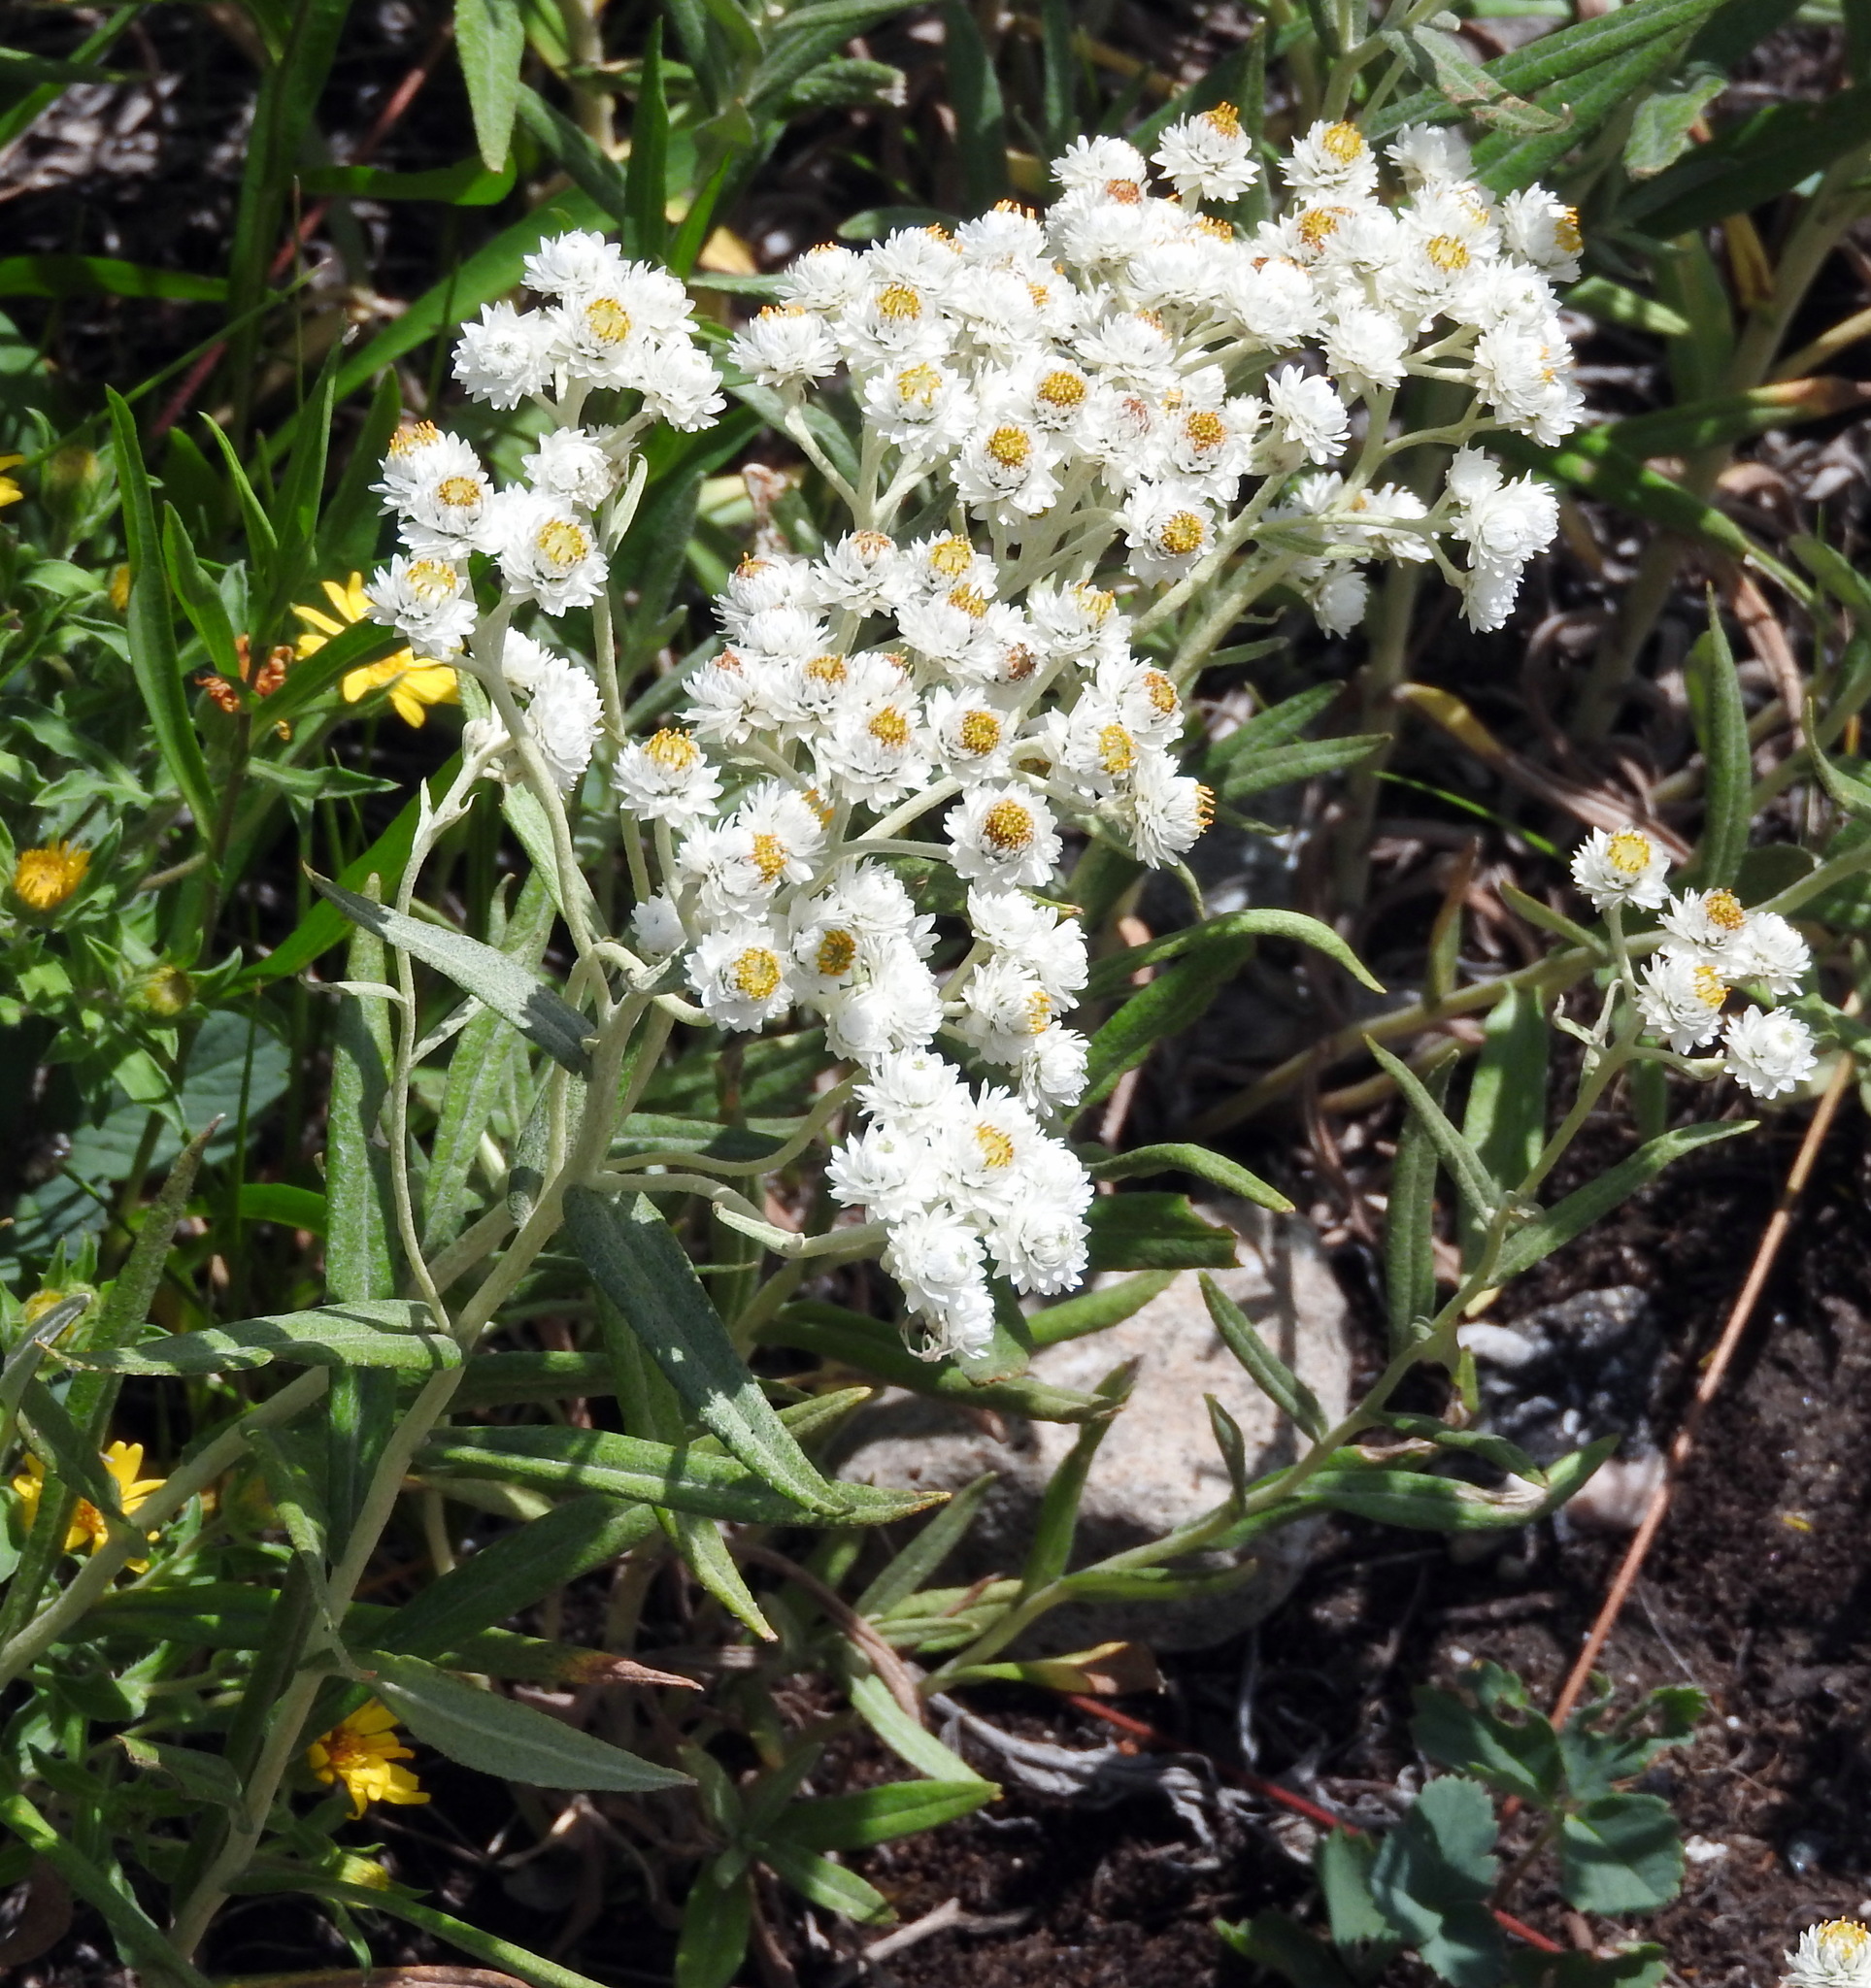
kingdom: Plantae
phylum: Tracheophyta
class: Magnoliopsida
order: Asterales
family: Asteraceae
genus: Anaphalis
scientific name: Anaphalis margaritacea
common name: Pearly everlasting
